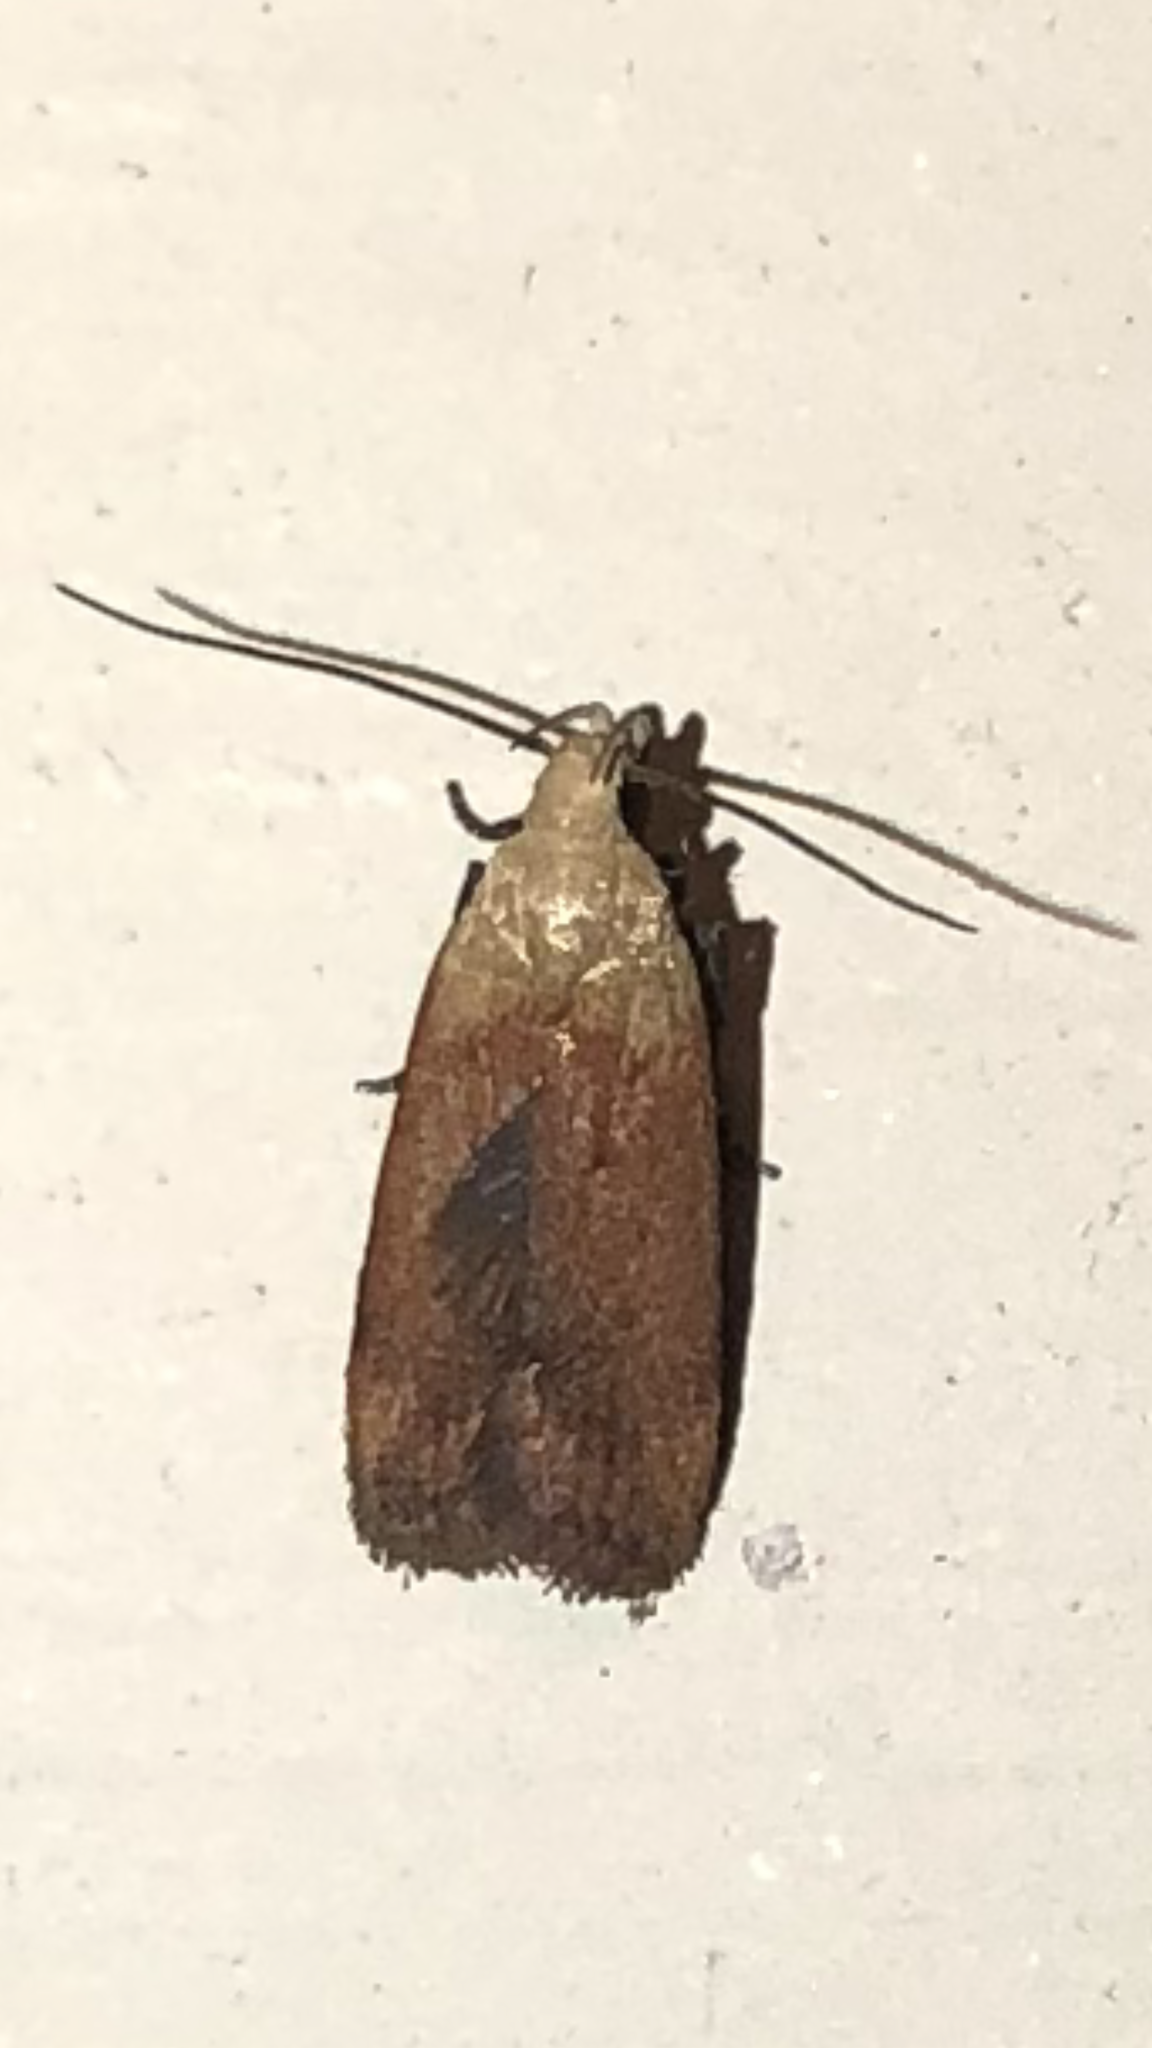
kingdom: Animalia
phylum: Arthropoda
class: Insecta
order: Lepidoptera
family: Gelechiidae
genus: Anacampsis
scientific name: Anacampsis fullonella
